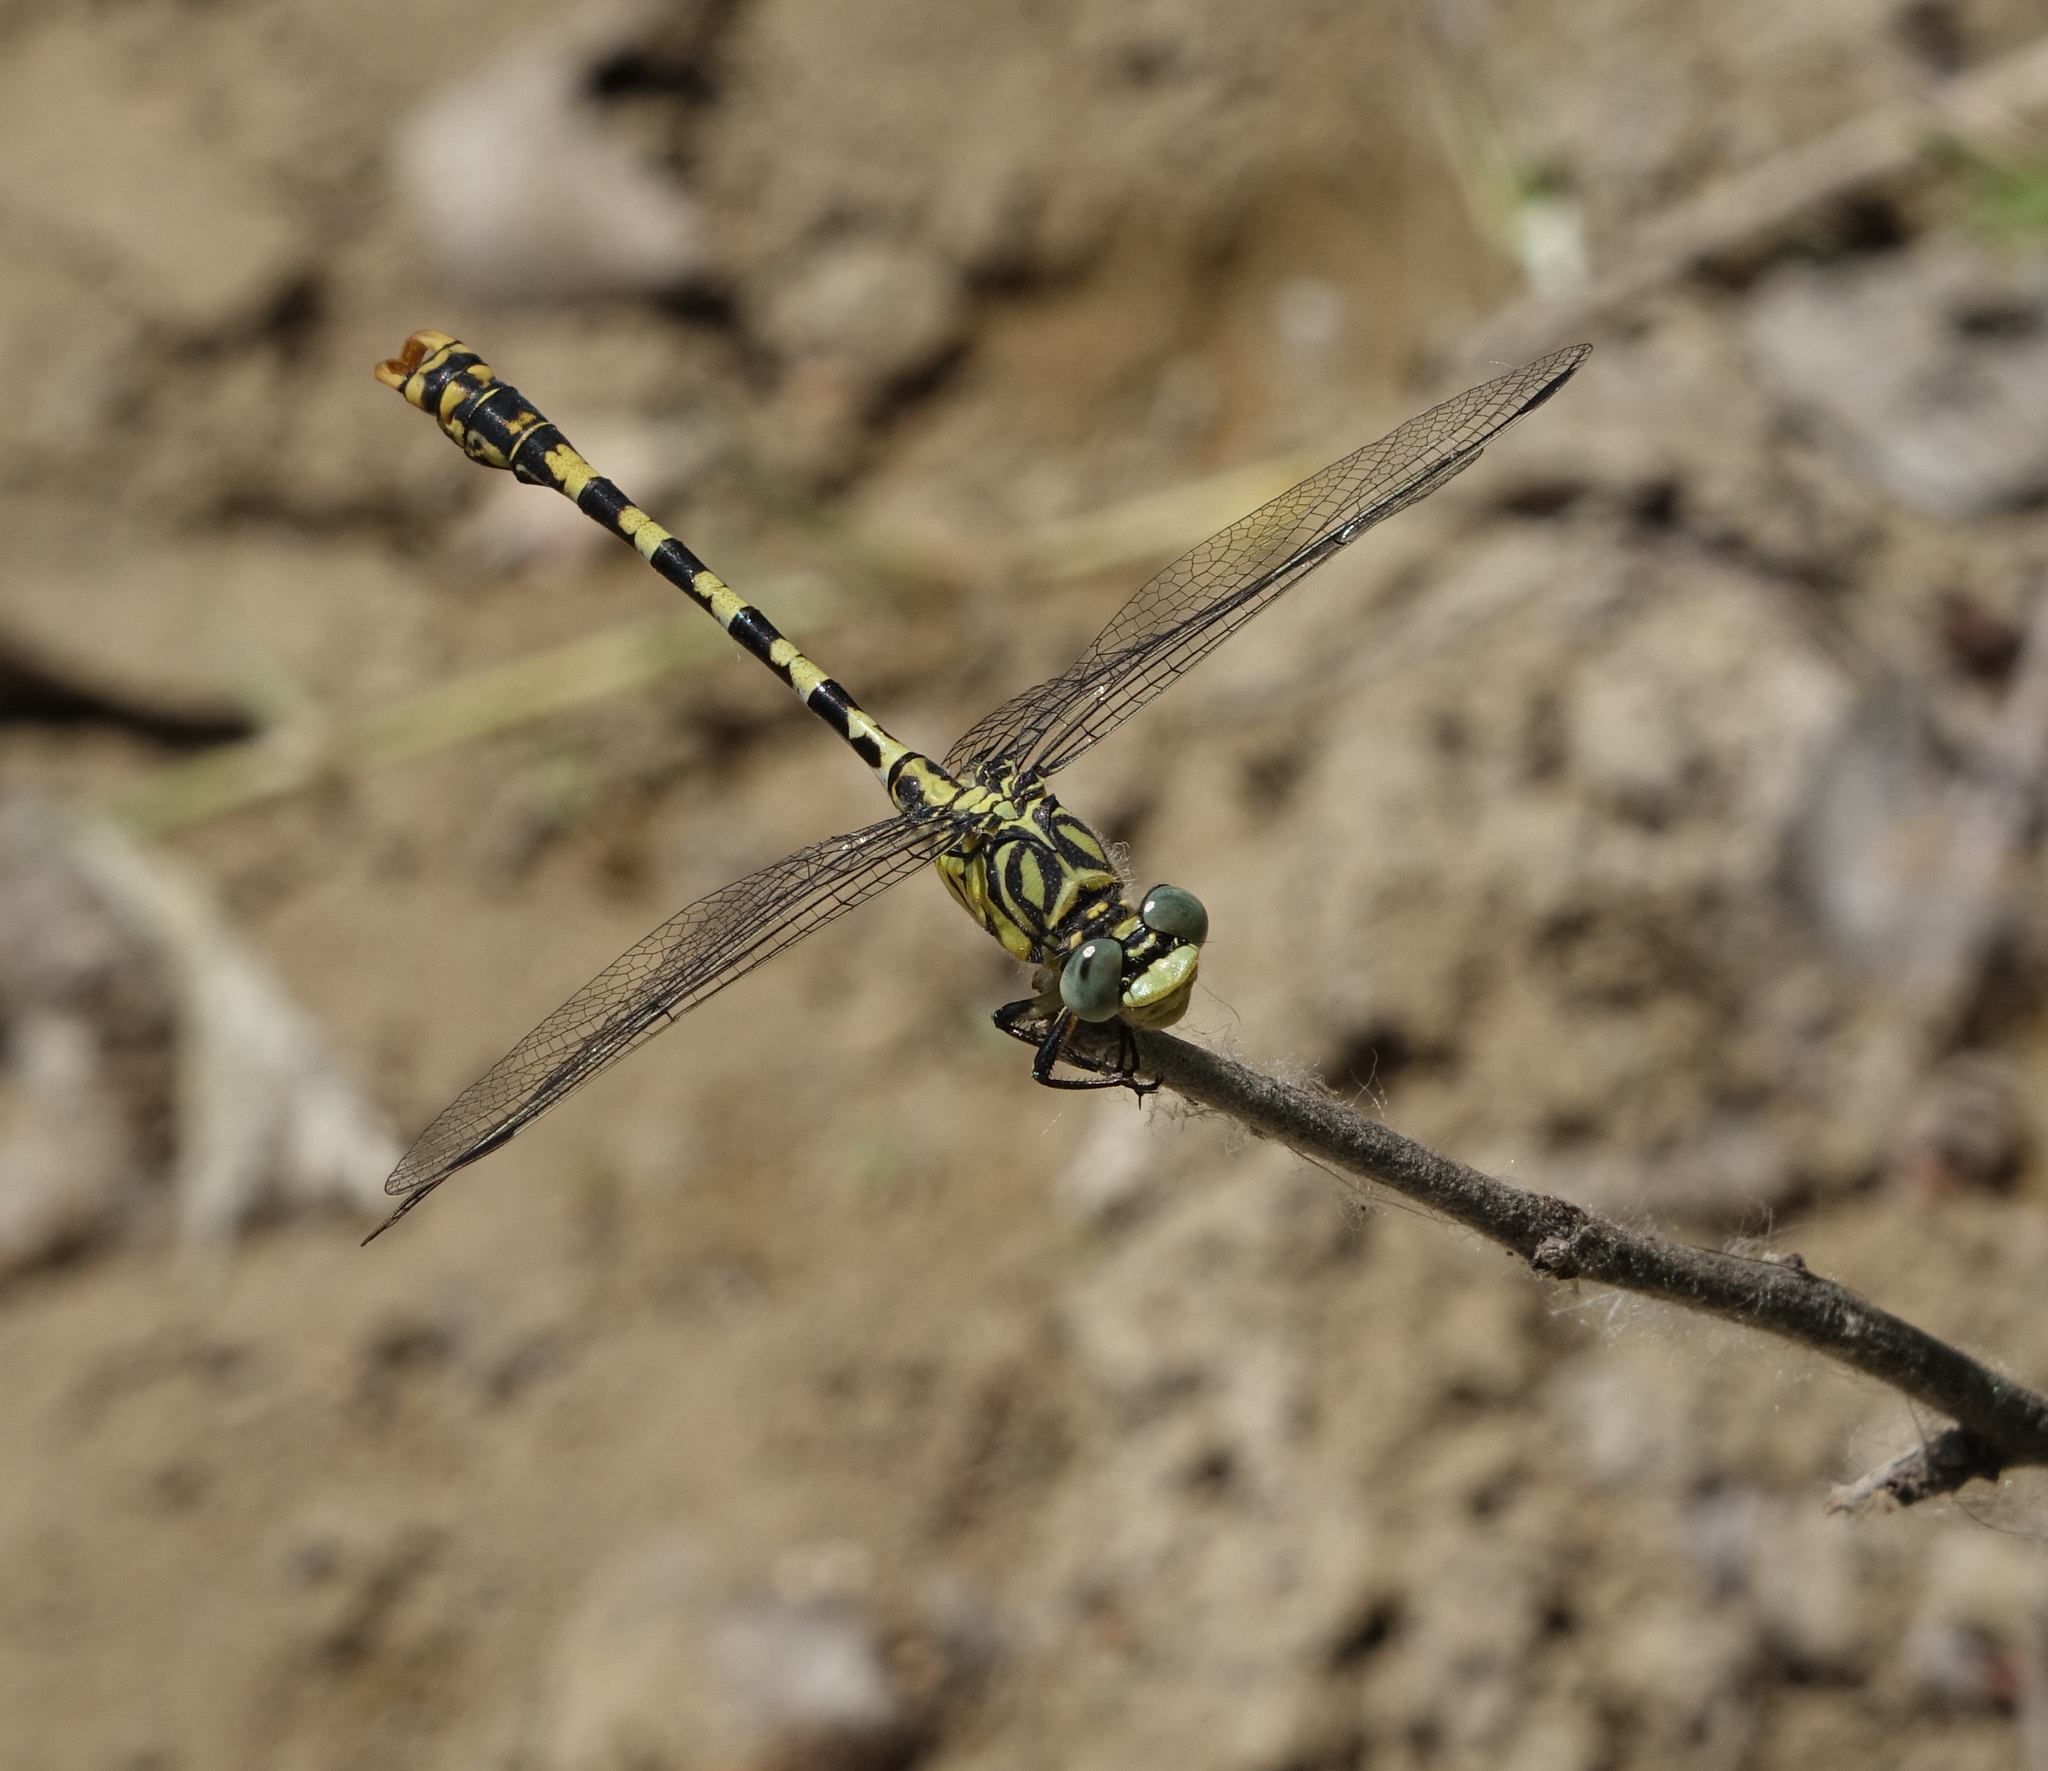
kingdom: Animalia
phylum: Arthropoda
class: Insecta
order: Odonata
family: Gomphidae
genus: Onychogomphus
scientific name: Onychogomphus forcipatus
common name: Small pincertail
